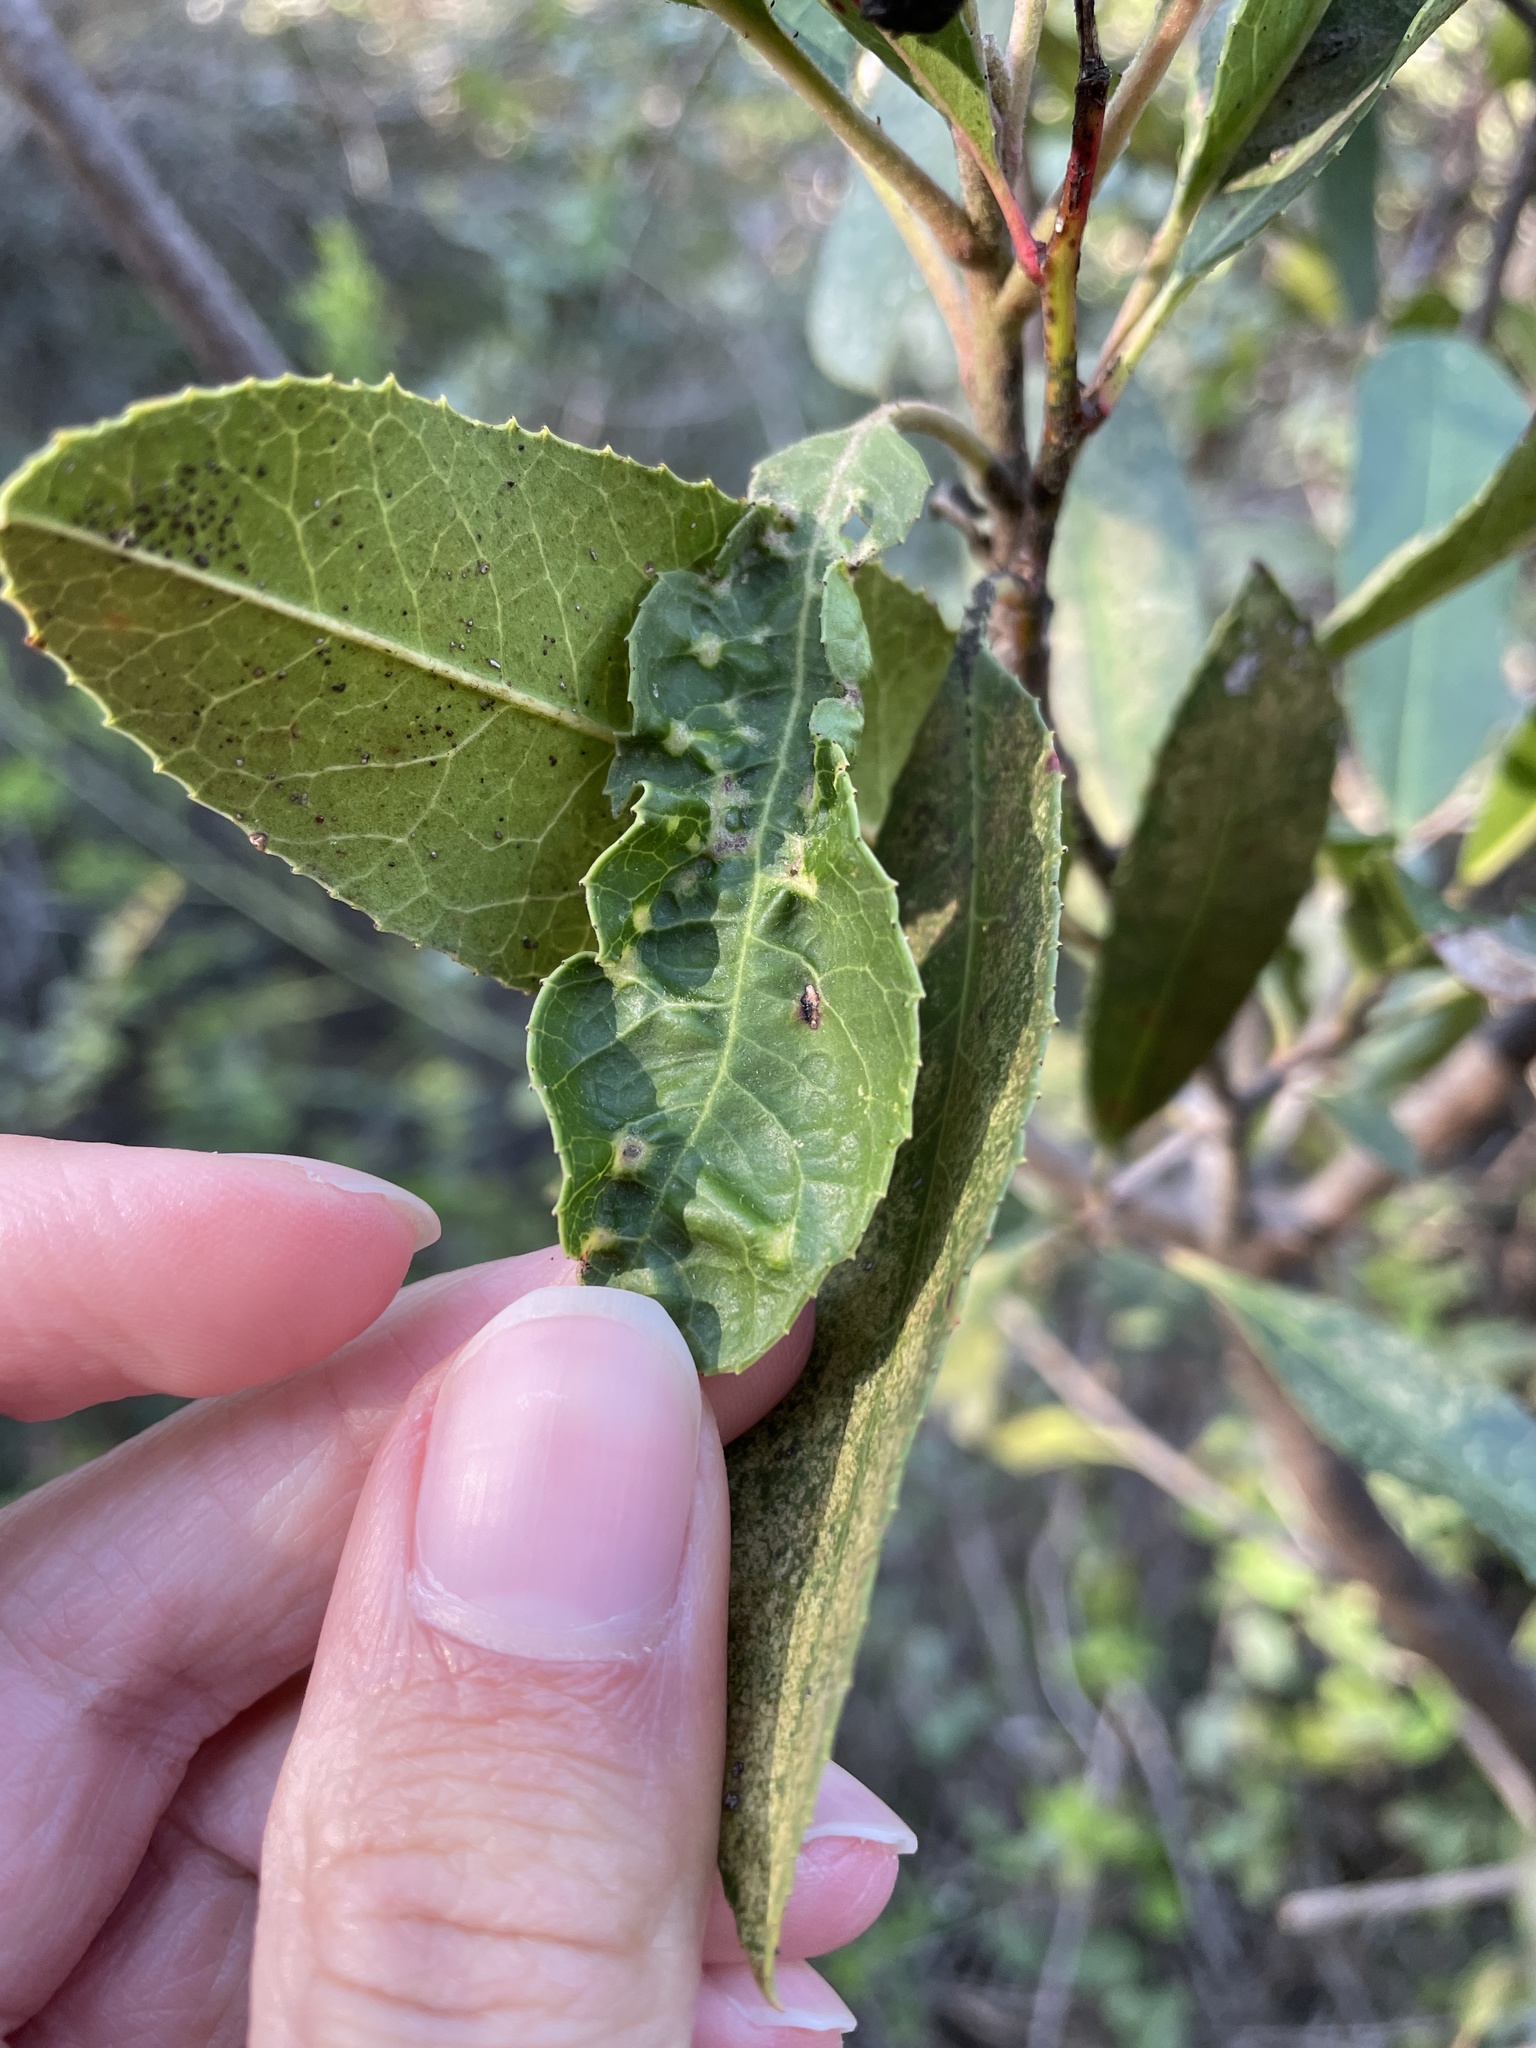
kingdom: Animalia
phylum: Arthropoda
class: Insecta
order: Thysanoptera
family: Phlaeothripidae
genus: Liothrips
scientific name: Liothrips ilex
